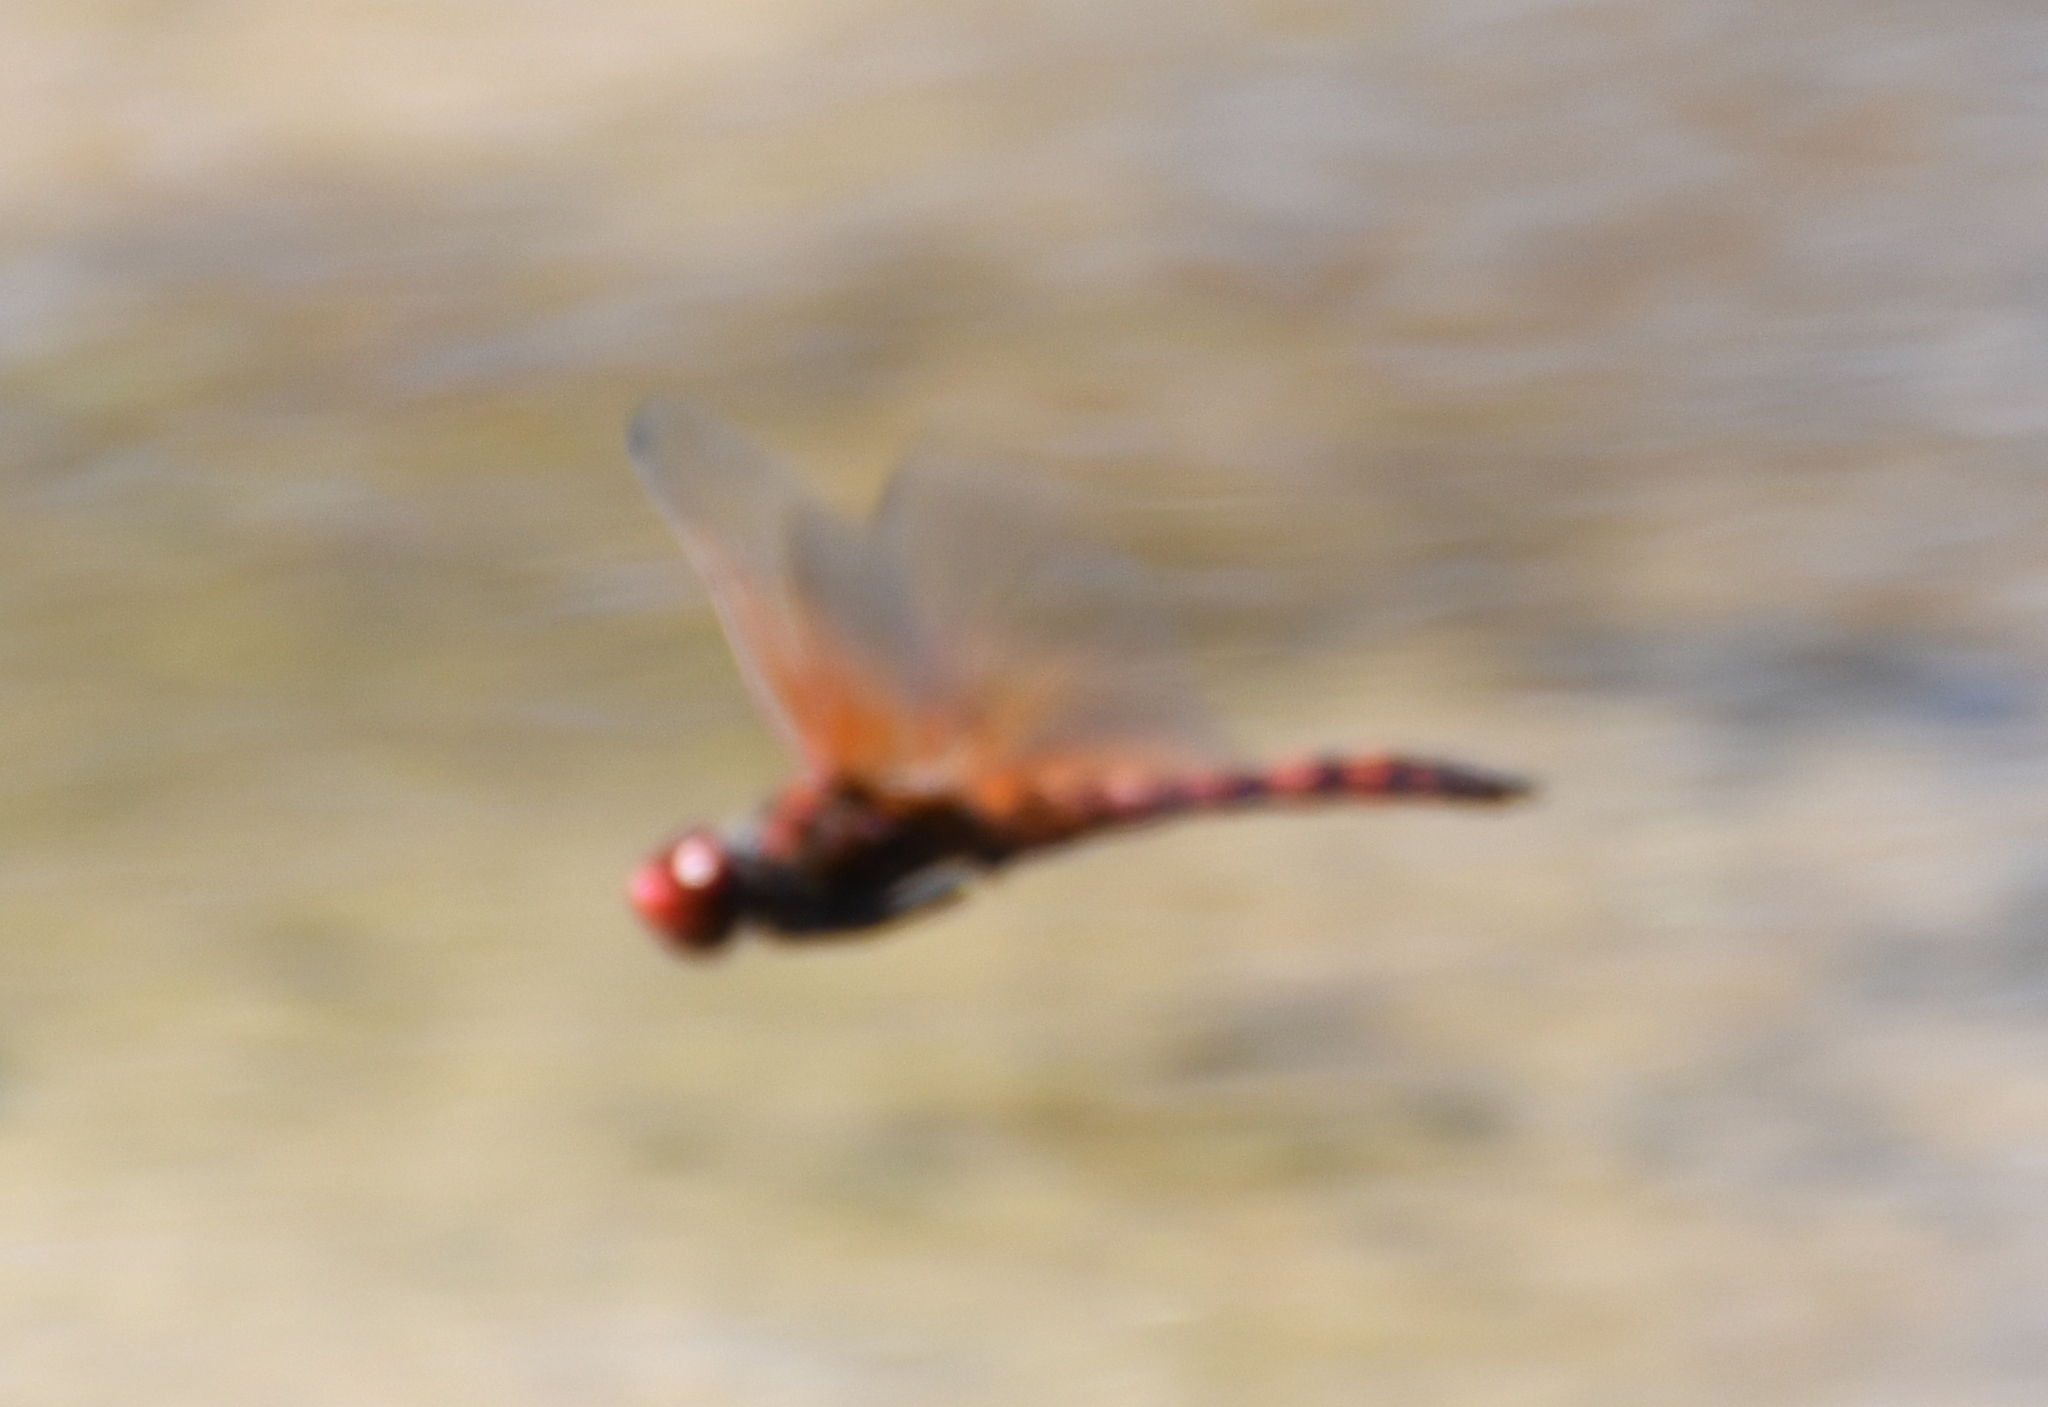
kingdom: Animalia
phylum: Arthropoda
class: Insecta
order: Odonata
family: Libellulidae
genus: Paltothemis
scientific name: Paltothemis lineatipes
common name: Red rock skimmer
